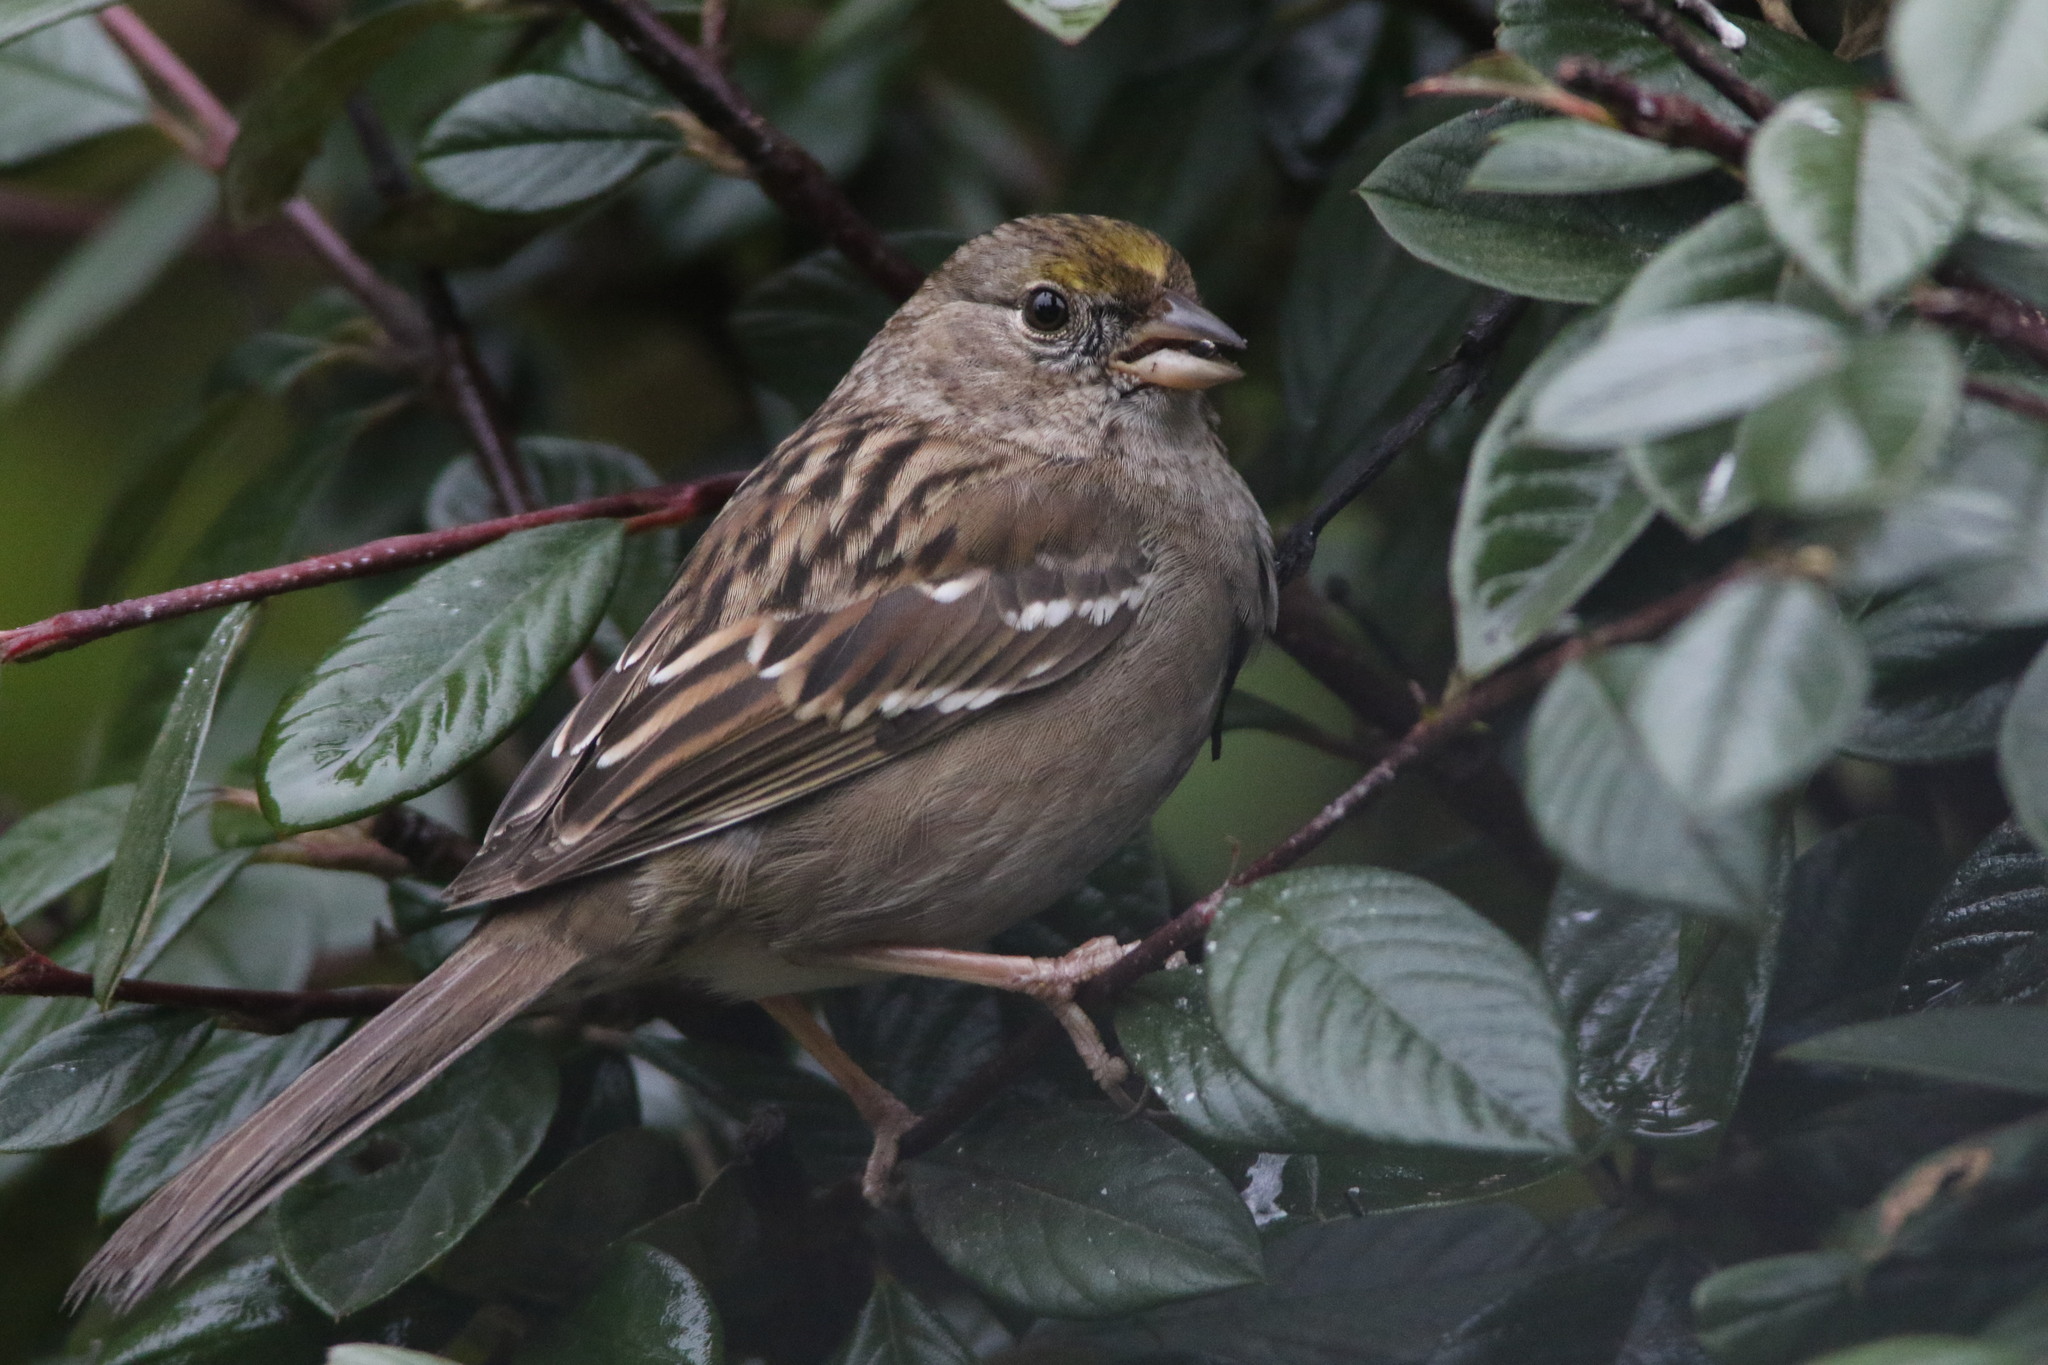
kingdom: Animalia
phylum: Chordata
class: Aves
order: Passeriformes
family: Passerellidae
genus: Zonotrichia
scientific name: Zonotrichia atricapilla
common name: Golden-crowned sparrow
